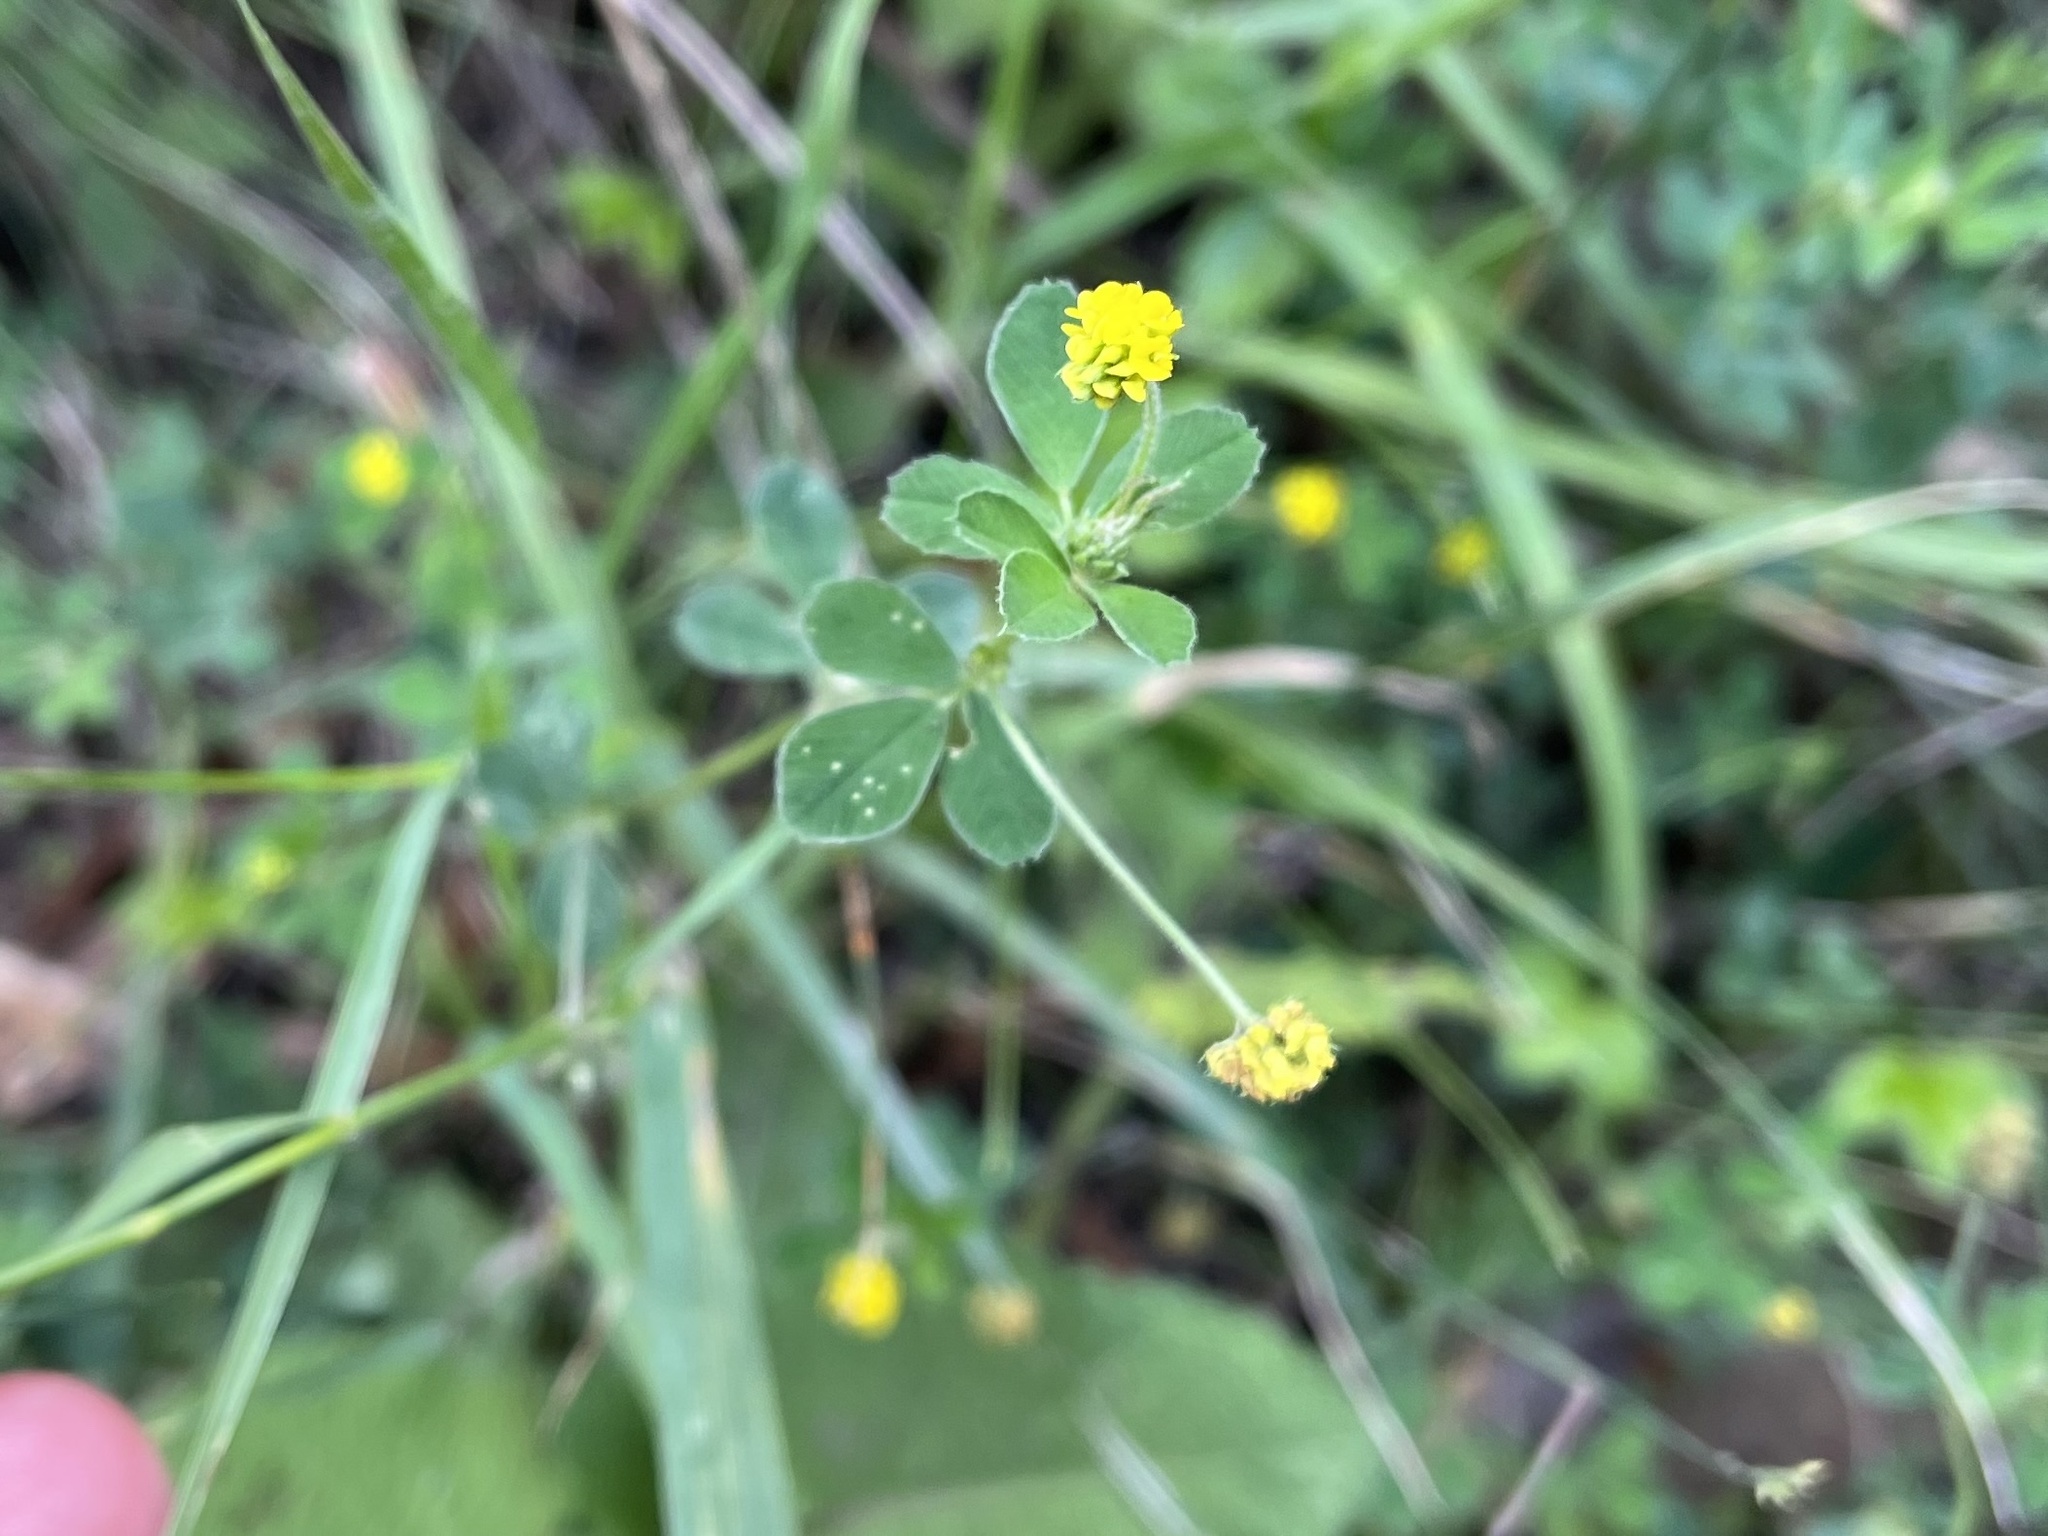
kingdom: Plantae
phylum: Tracheophyta
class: Magnoliopsida
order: Fabales
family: Fabaceae
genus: Medicago
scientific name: Medicago lupulina
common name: Black medick
